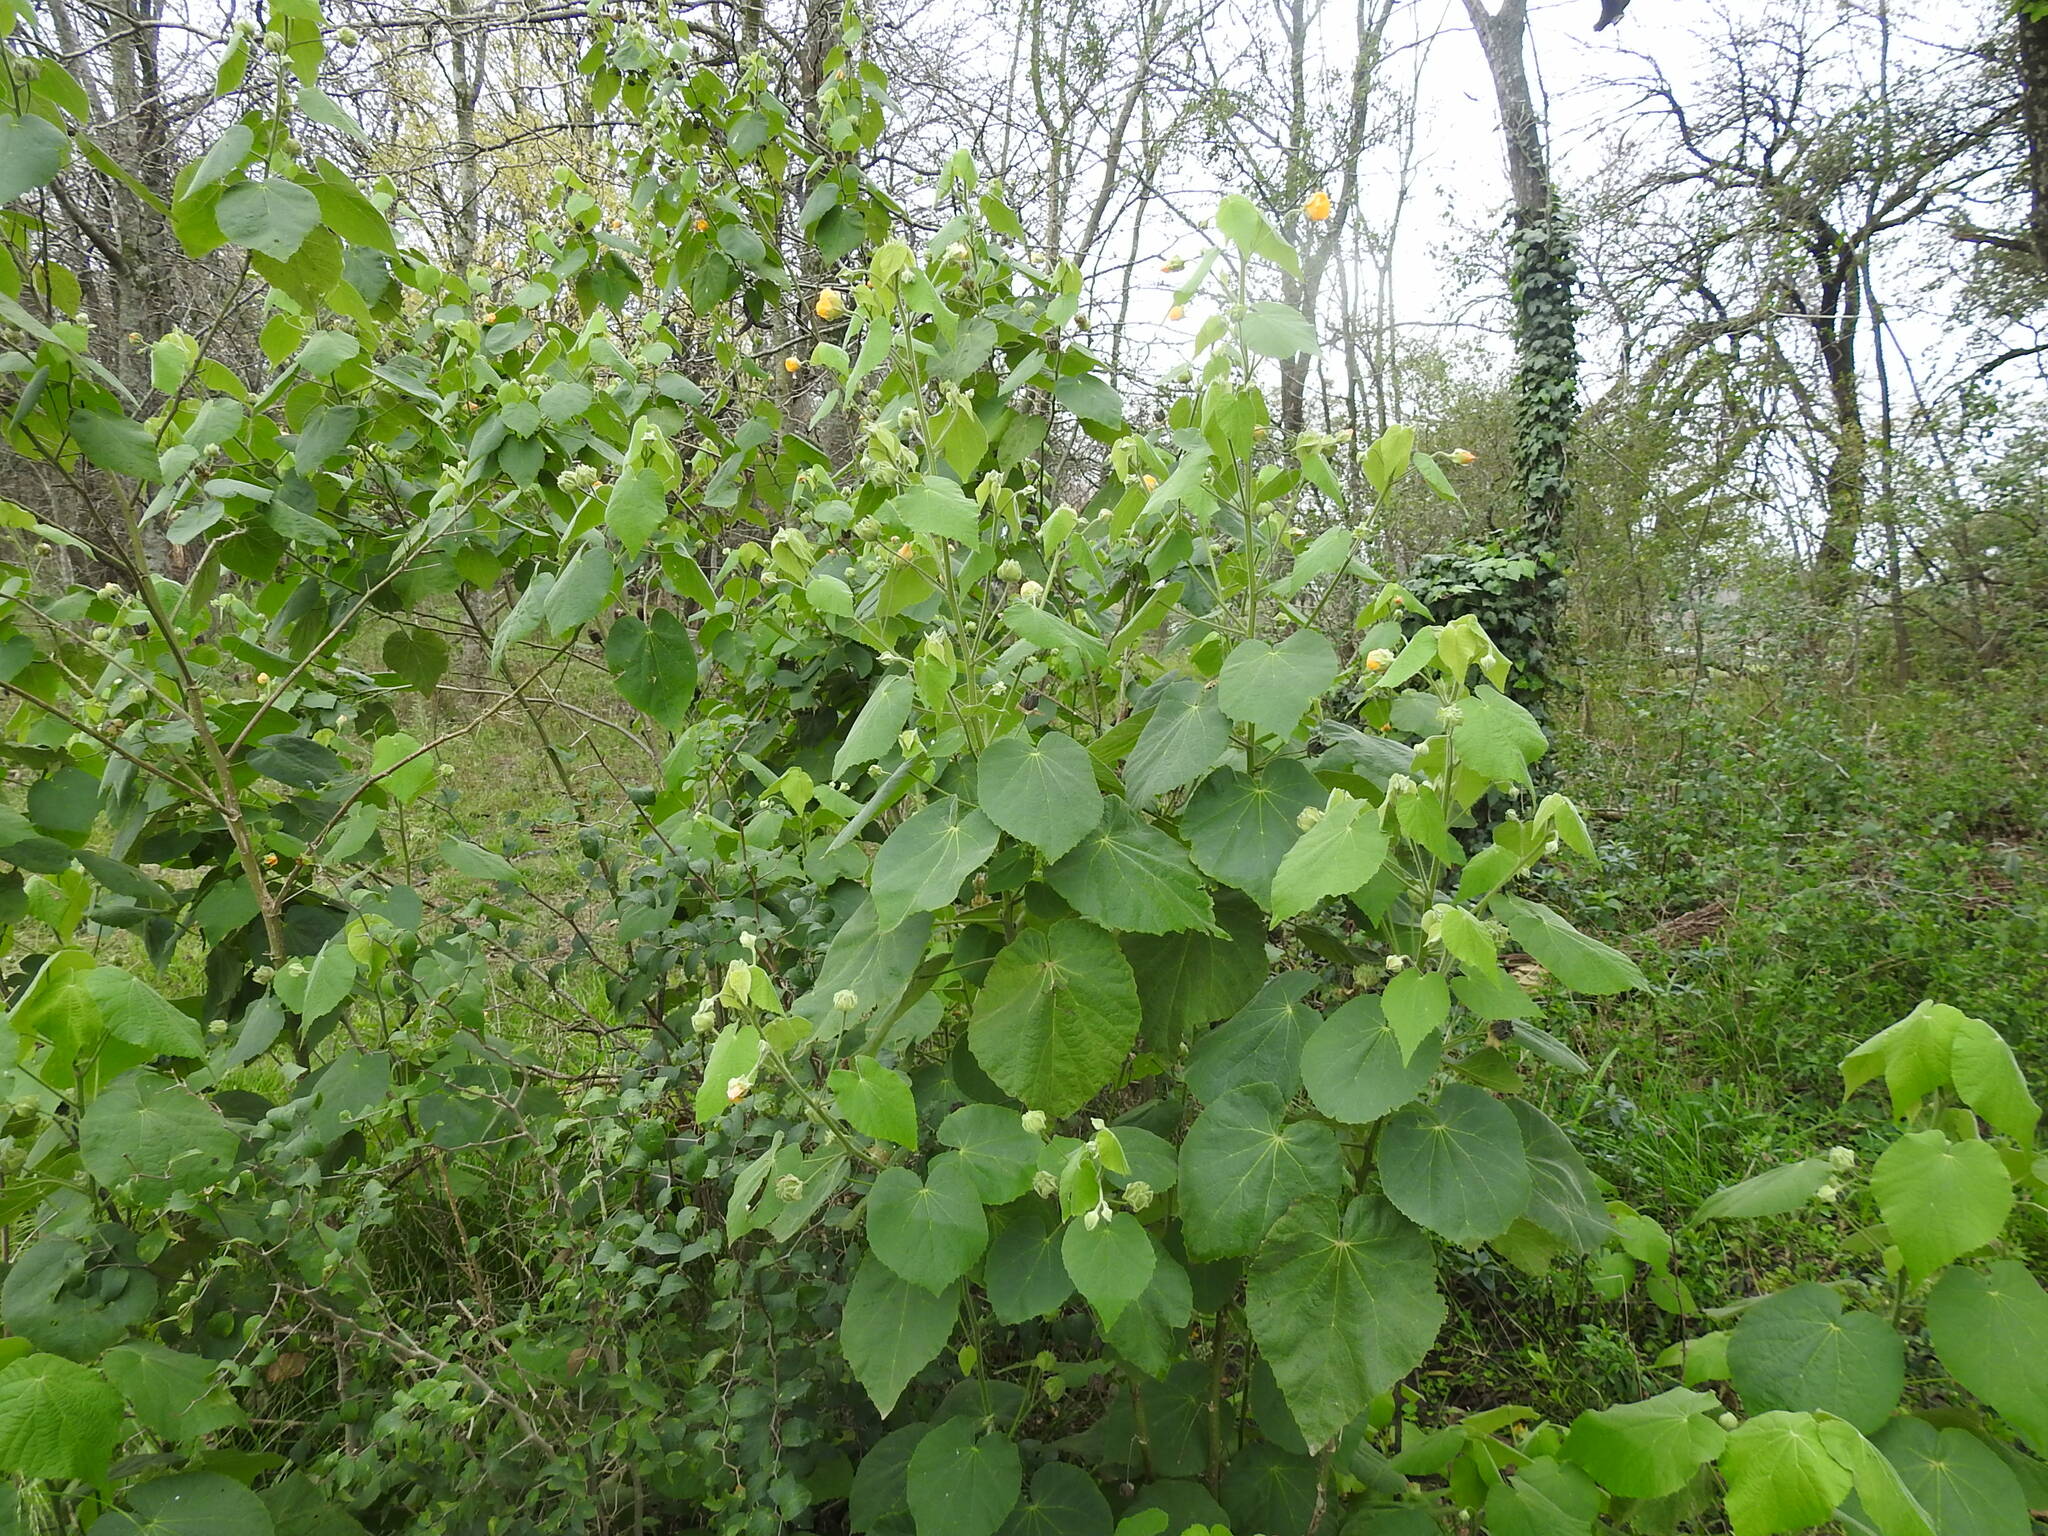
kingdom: Plantae
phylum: Tracheophyta
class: Magnoliopsida
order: Malvales
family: Malvaceae
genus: Abutilon
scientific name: Abutilon grandifolium
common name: Hairy abutilon
